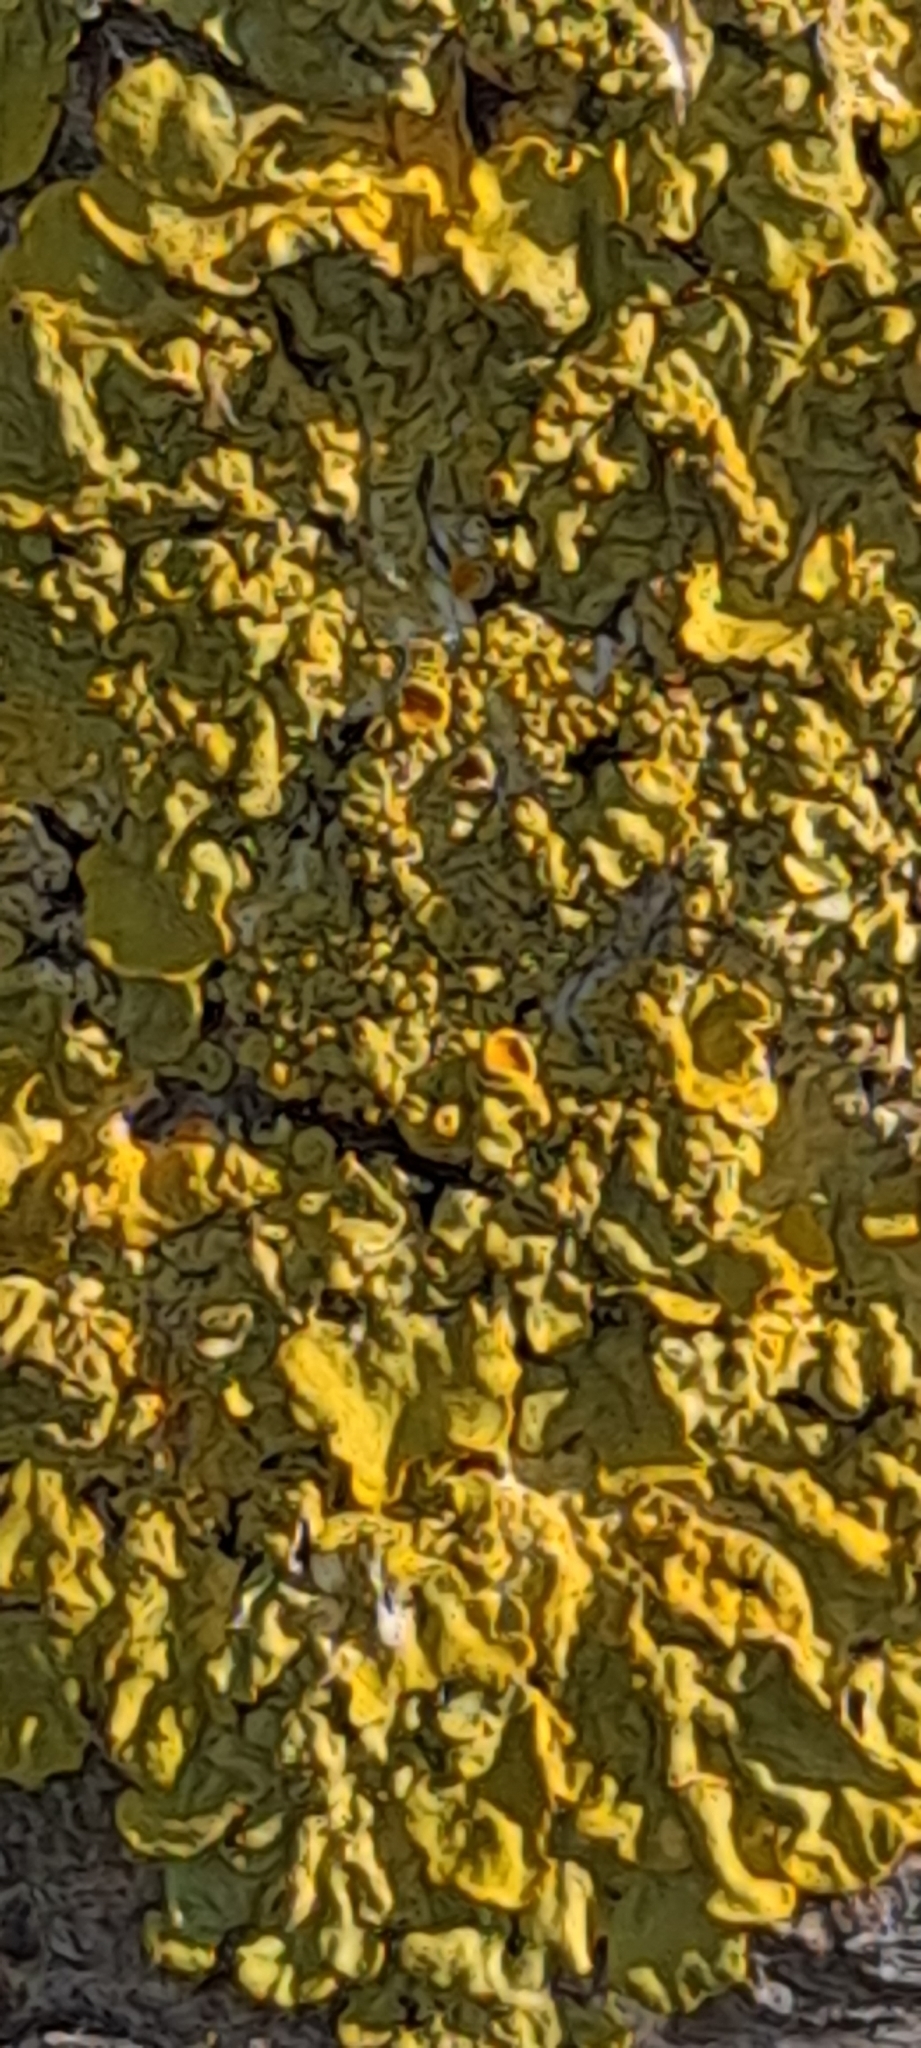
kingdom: Fungi
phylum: Ascomycota
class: Lecanoromycetes
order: Teloschistales
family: Teloschistaceae
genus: Xanthoria
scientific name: Xanthoria parietina
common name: Common orange lichen
